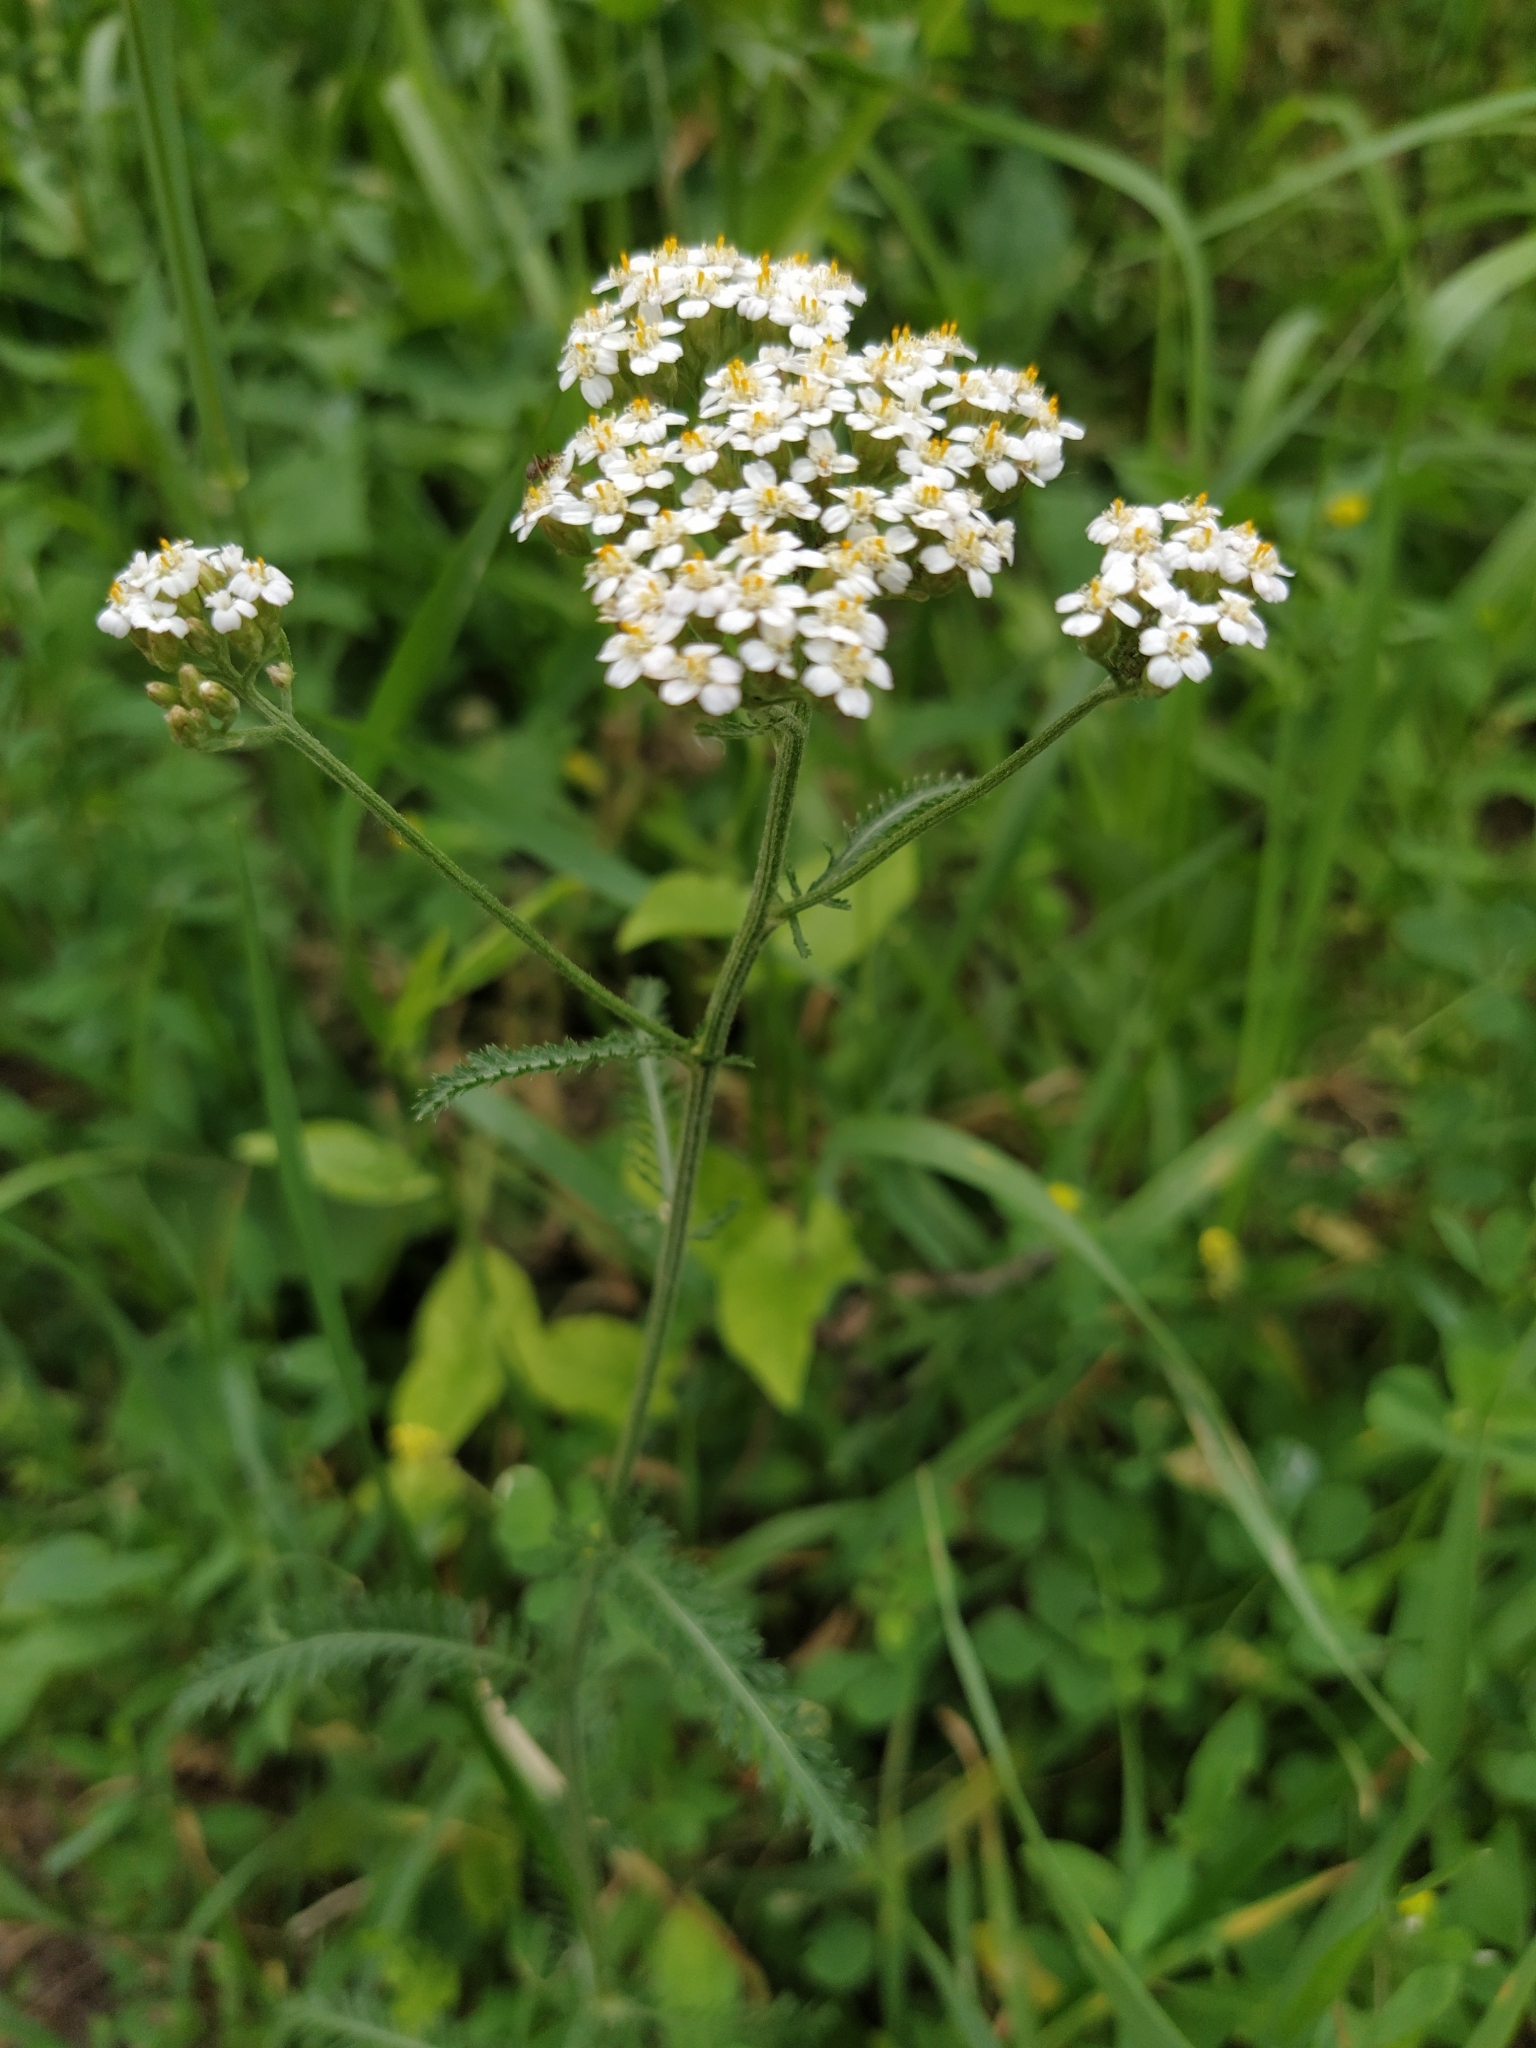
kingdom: Plantae
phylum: Tracheophyta
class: Magnoliopsida
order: Asterales
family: Asteraceae
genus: Achillea
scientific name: Achillea millefolium
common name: Yarrow
